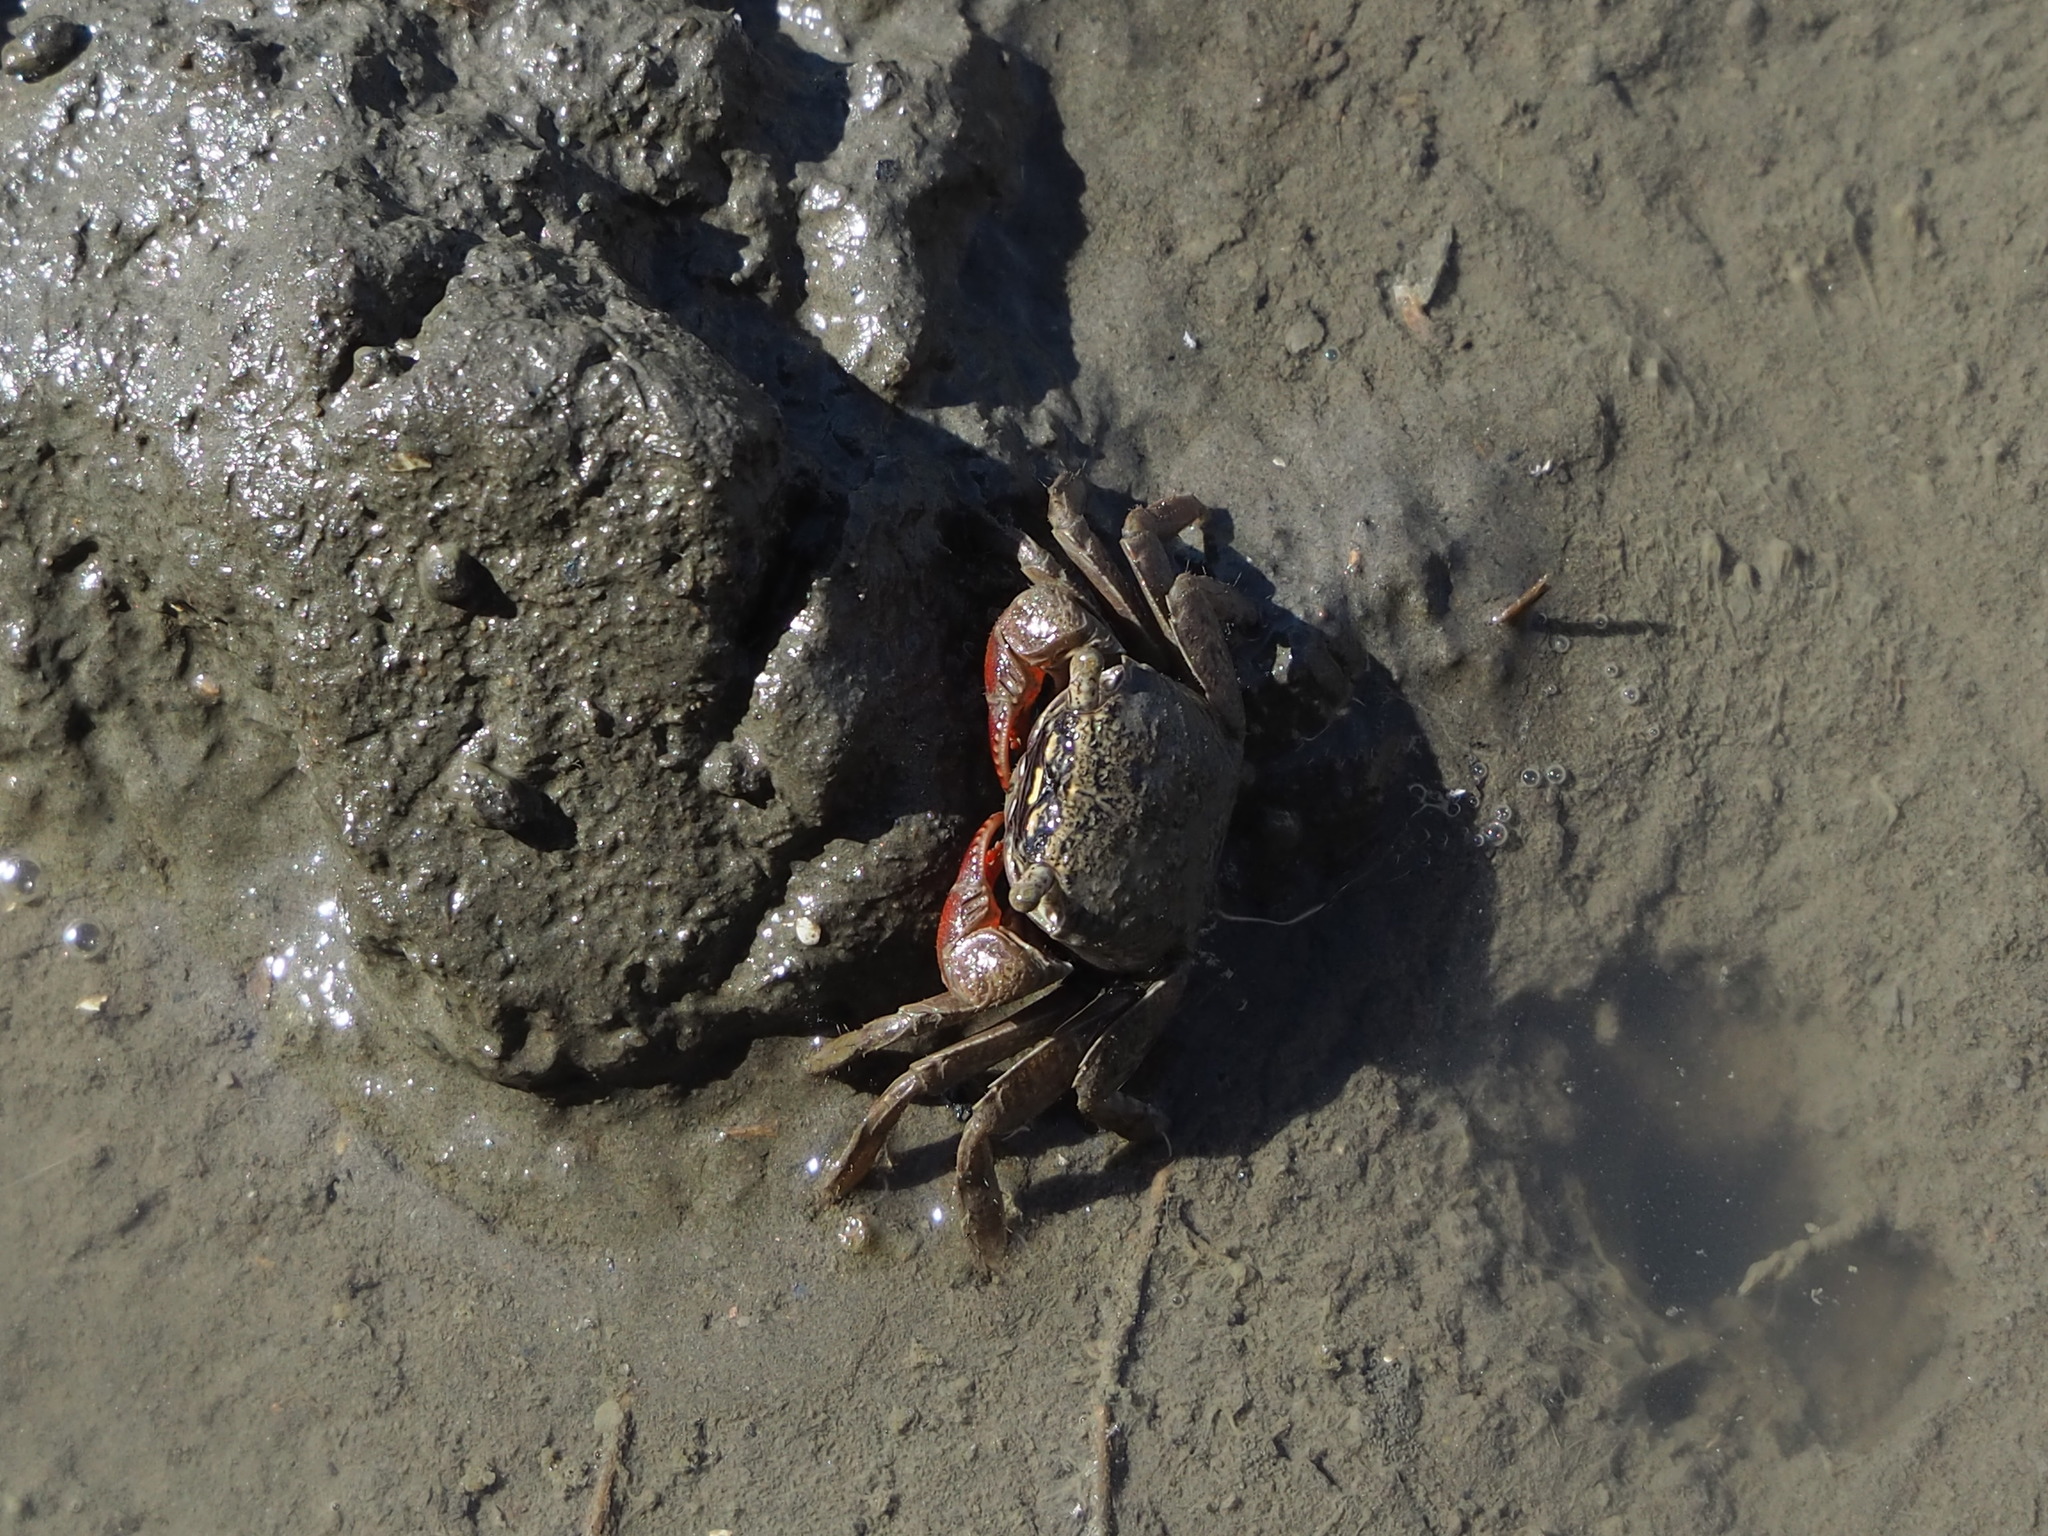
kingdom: Animalia
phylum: Arthropoda
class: Malacostraca
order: Decapoda
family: Sesarmidae
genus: Parasesarma
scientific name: Parasesarma affine
